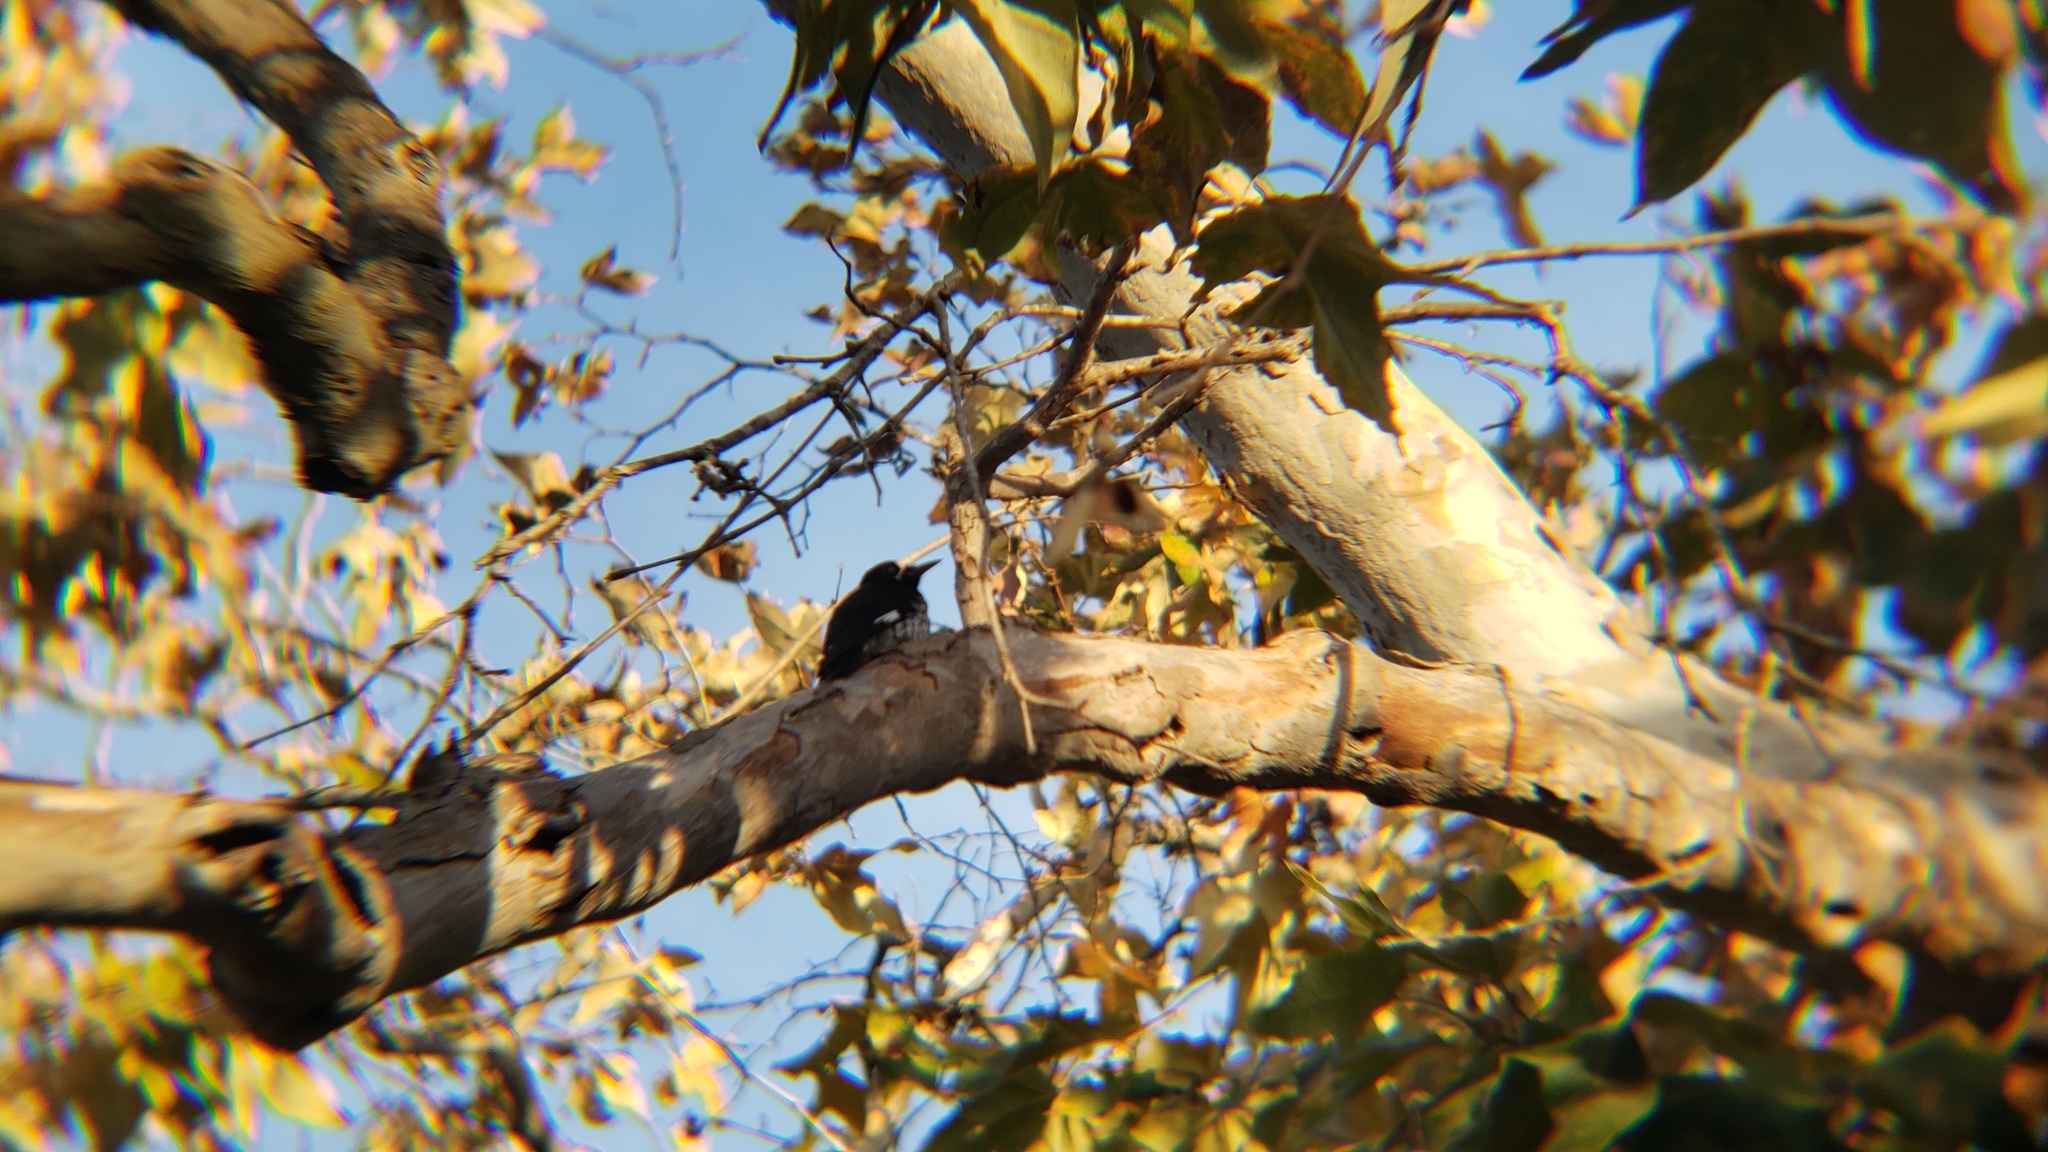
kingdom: Animalia
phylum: Chordata
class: Aves
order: Piciformes
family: Picidae
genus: Melanerpes
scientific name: Melanerpes formicivorus
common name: Acorn woodpecker
